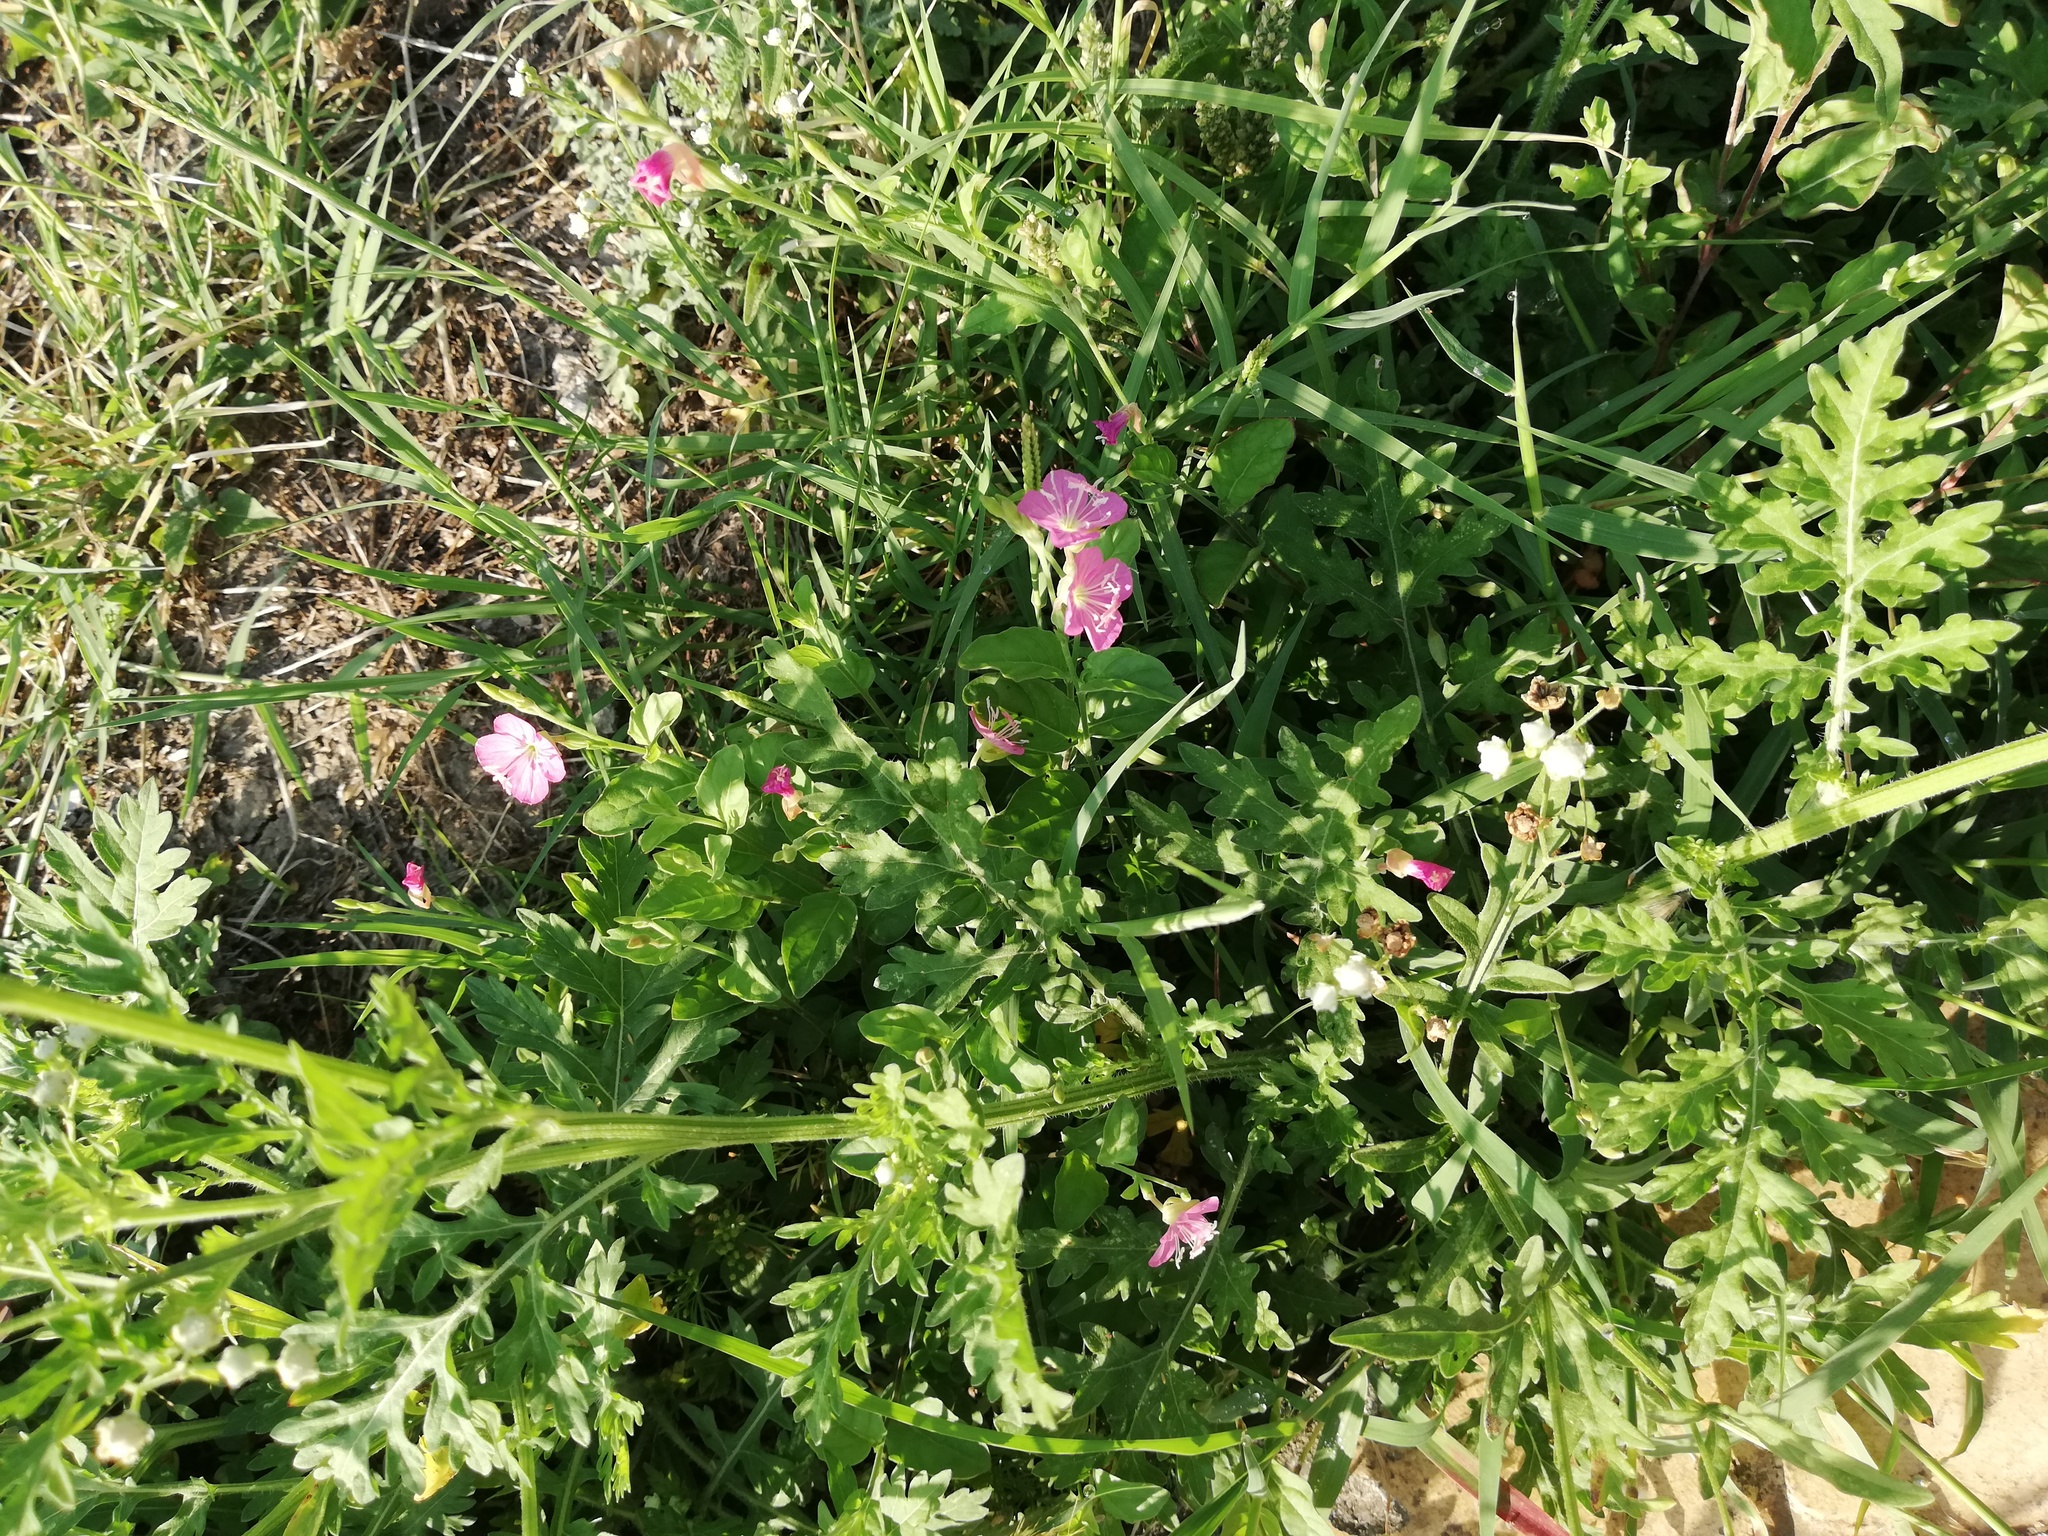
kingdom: Plantae
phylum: Tracheophyta
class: Magnoliopsida
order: Myrtales
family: Onagraceae
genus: Oenothera
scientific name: Oenothera rosea
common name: Rosy evening-primrose
